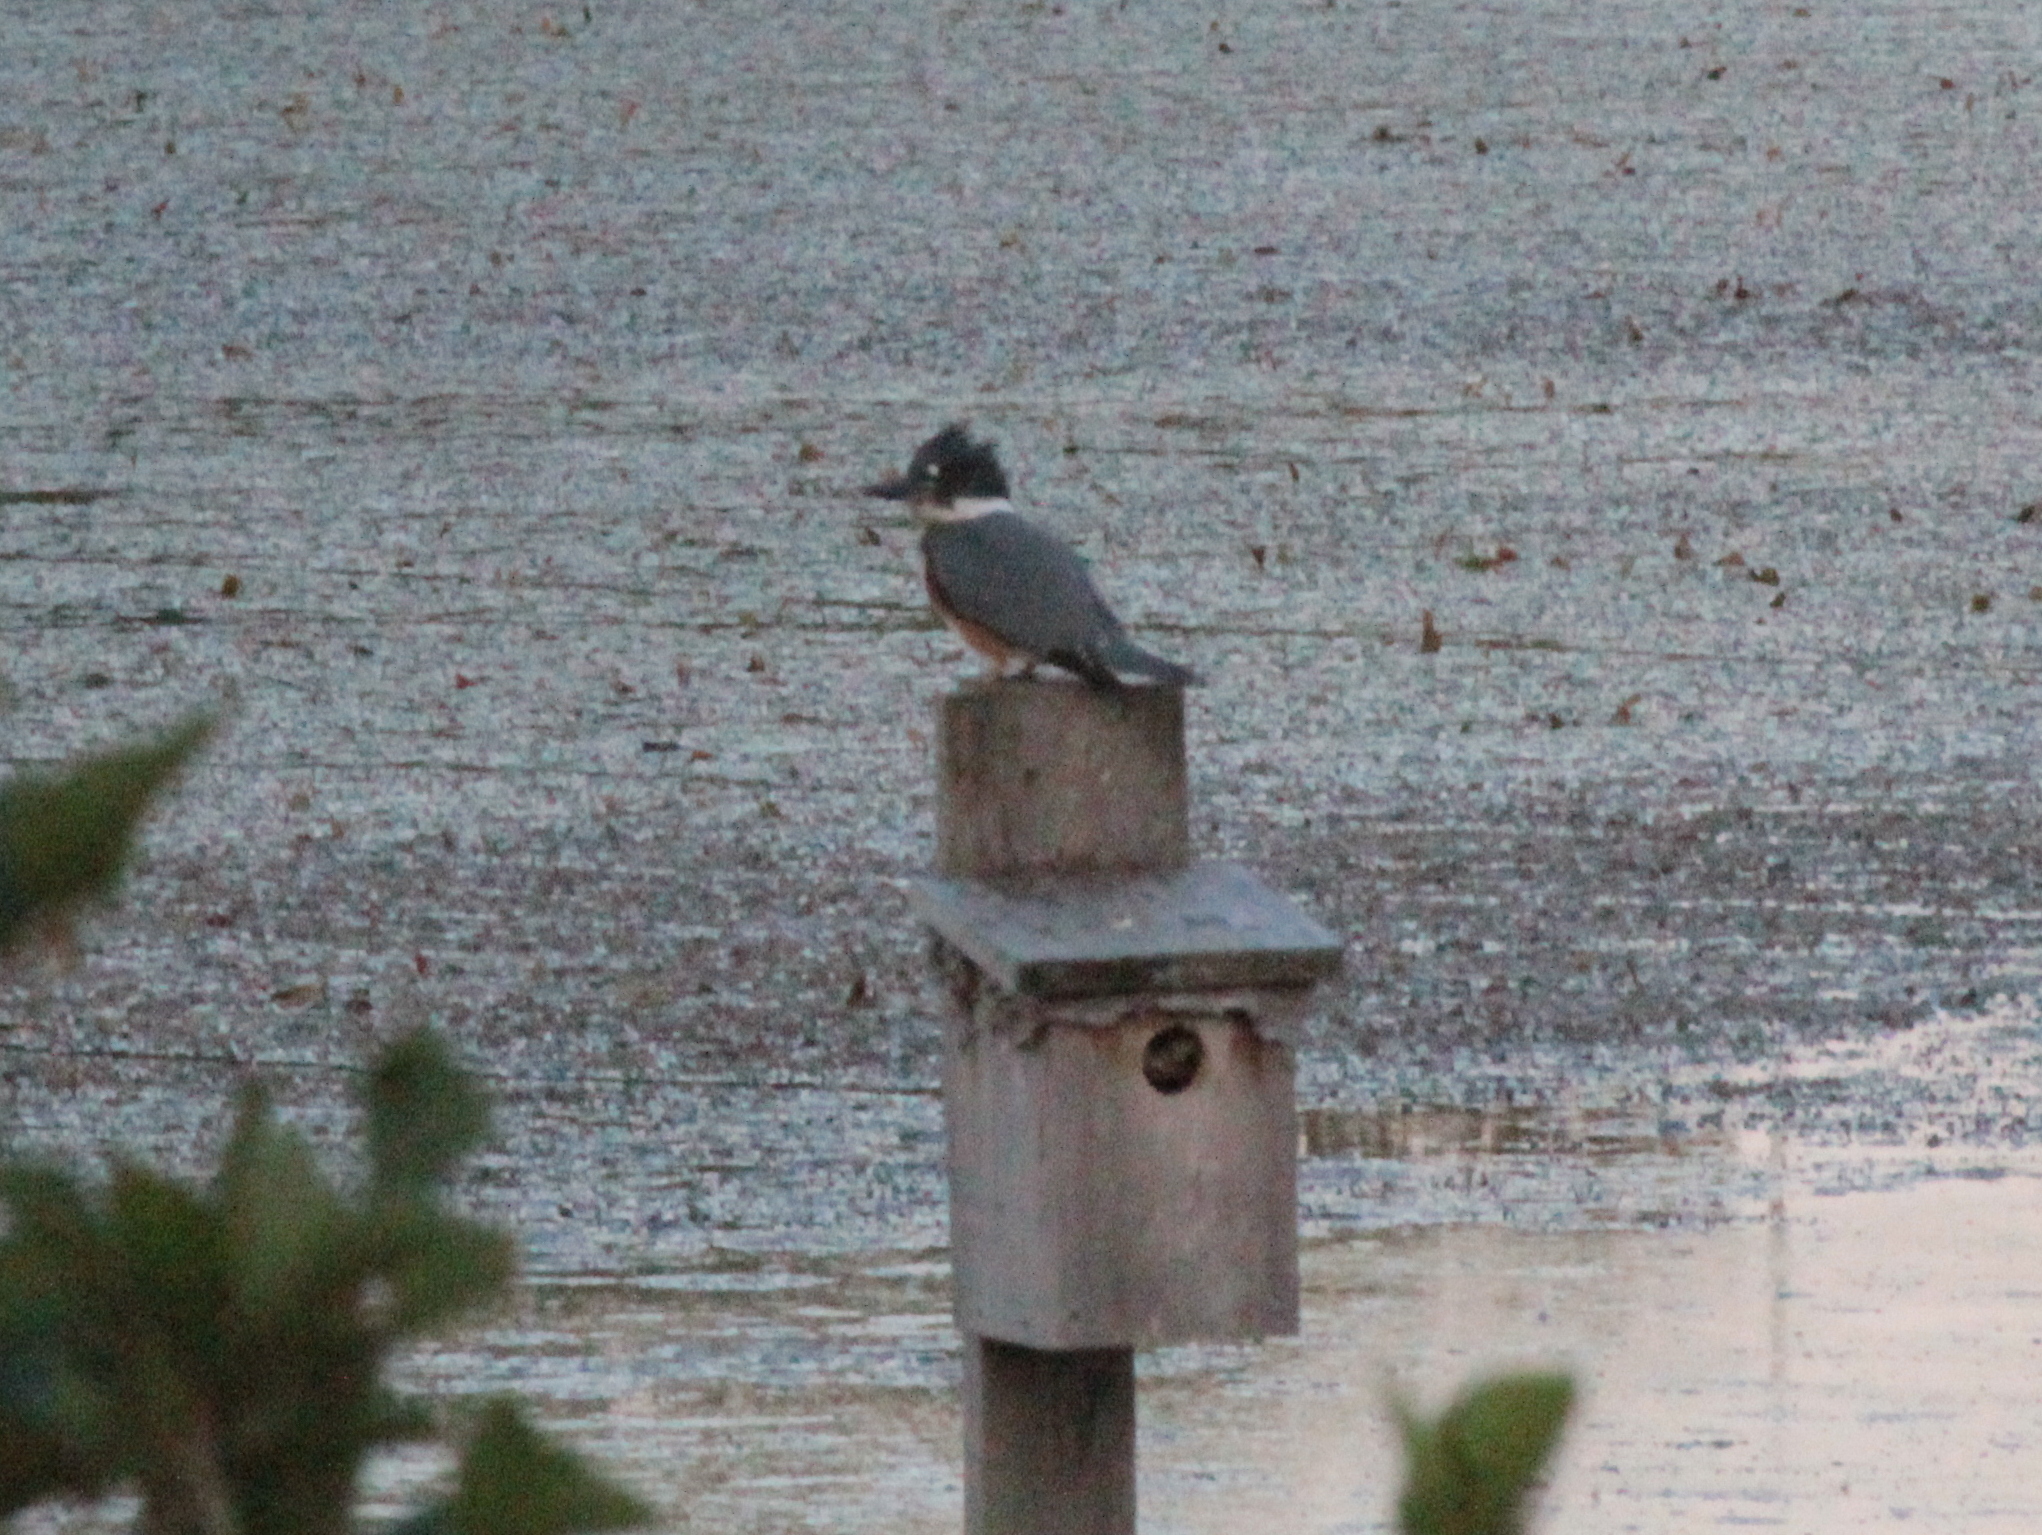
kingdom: Animalia
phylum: Chordata
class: Aves
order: Coraciiformes
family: Alcedinidae
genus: Megaceryle
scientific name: Megaceryle alcyon
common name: Belted kingfisher
